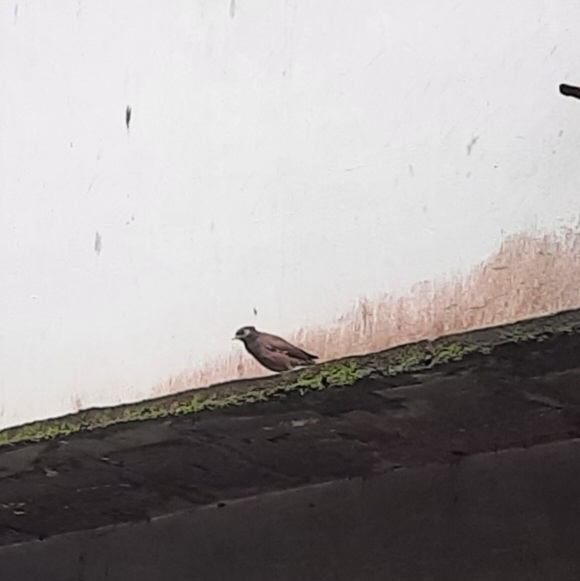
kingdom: Animalia
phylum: Chordata
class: Aves
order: Passeriformes
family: Sturnidae
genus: Acridotheres
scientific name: Acridotheres tristis
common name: Common myna
